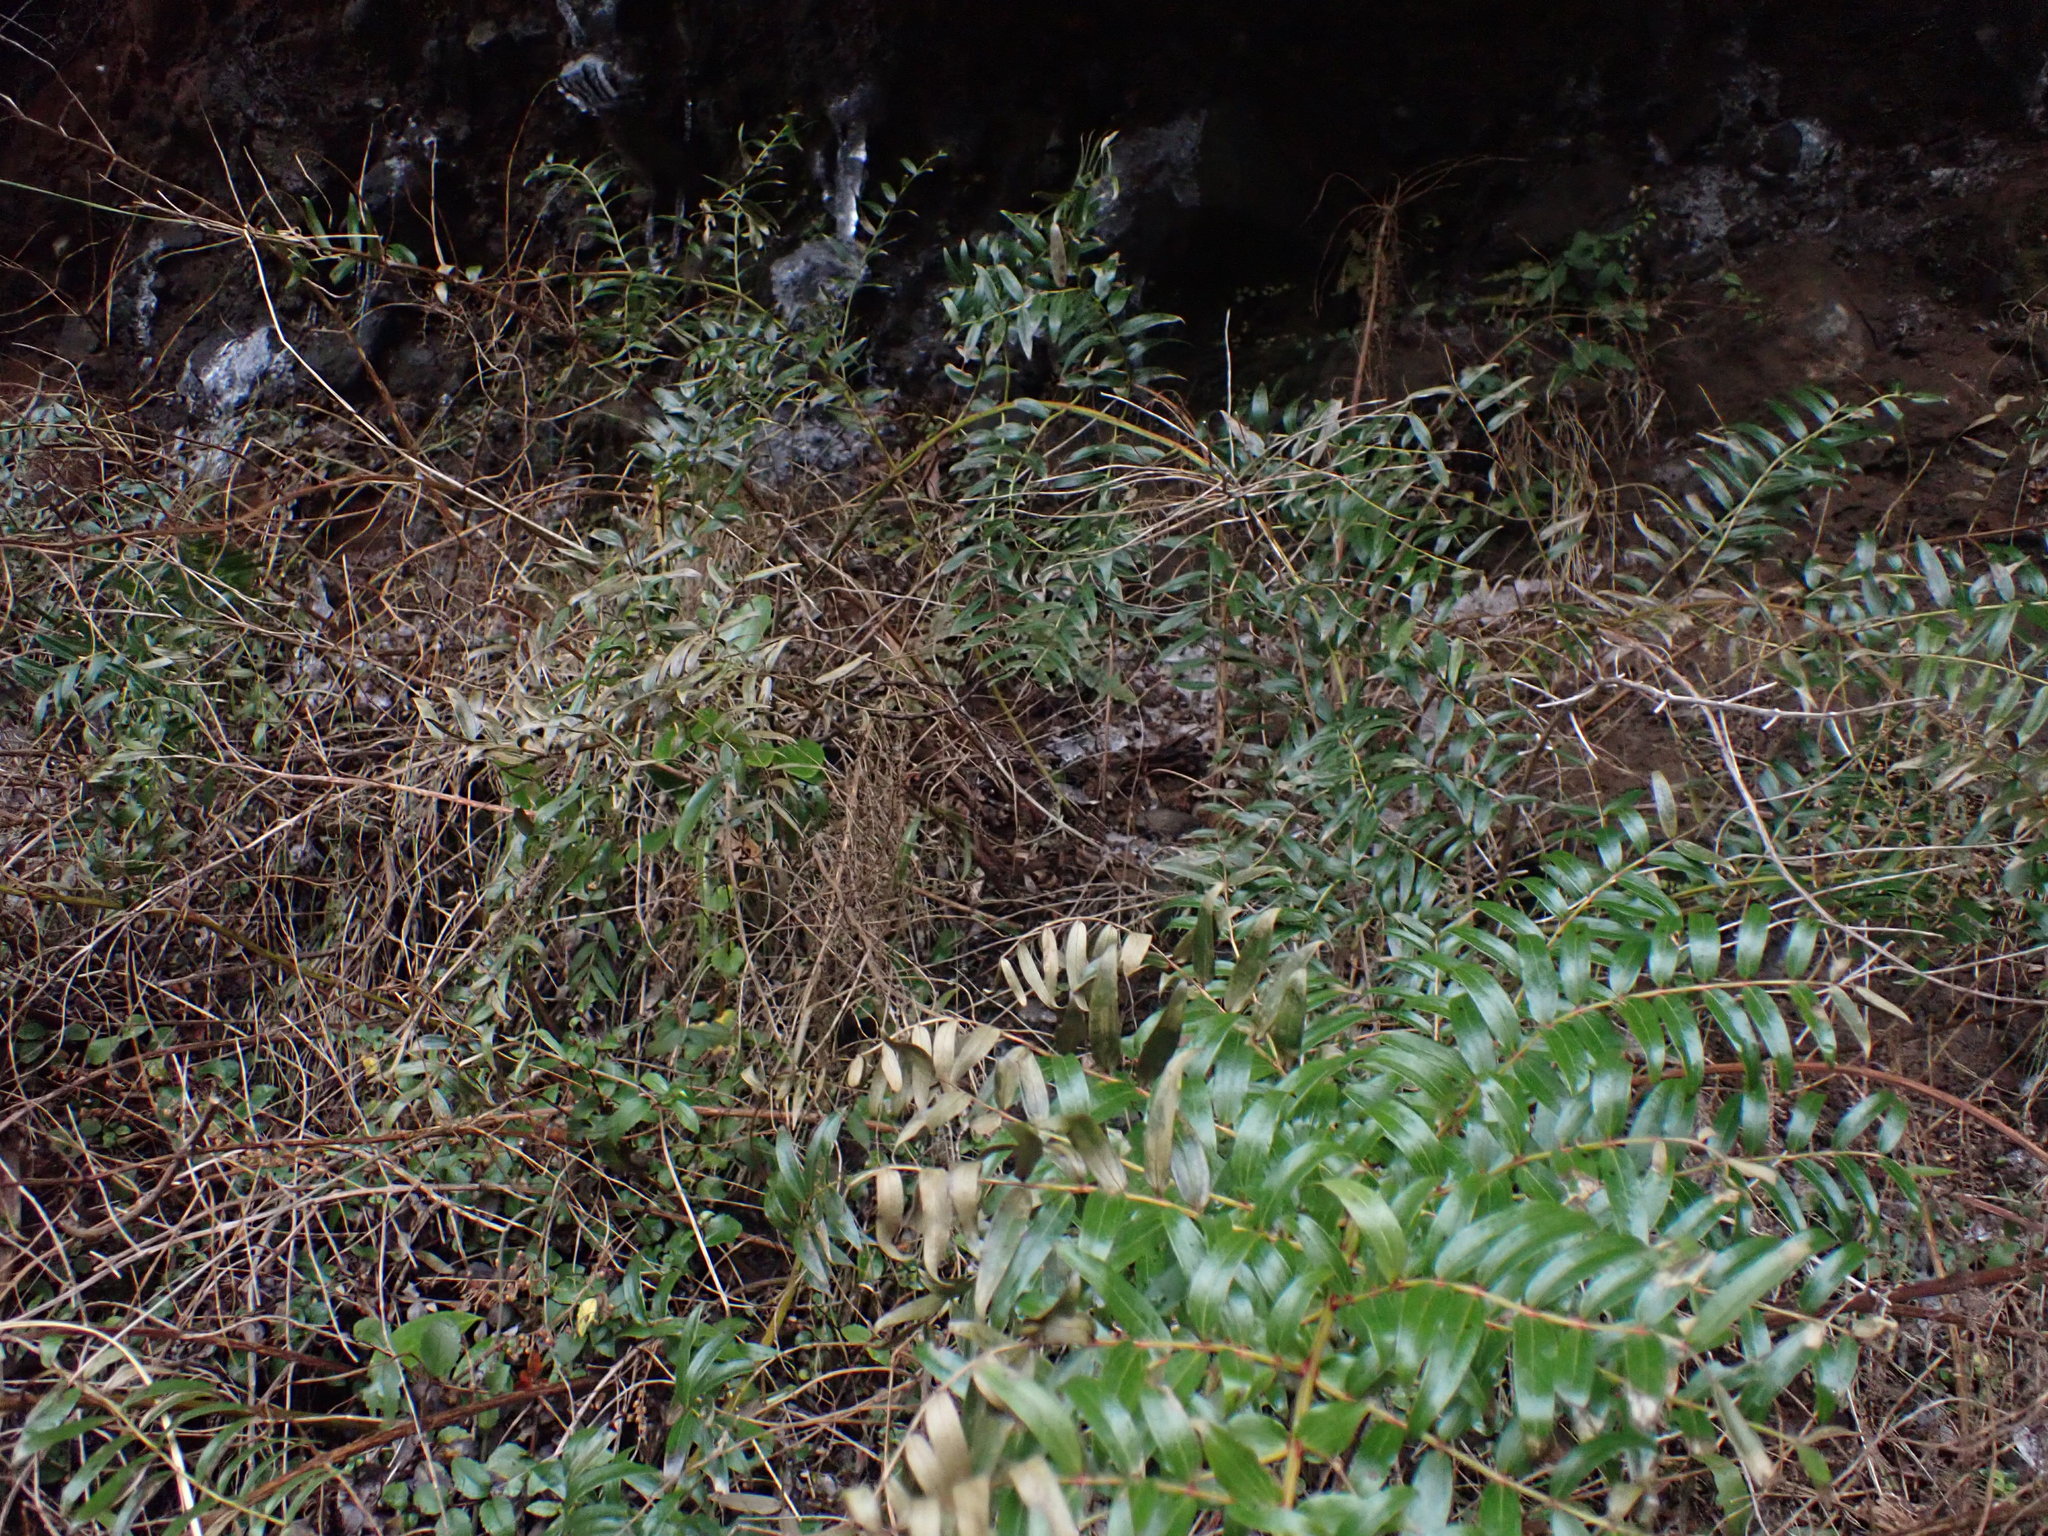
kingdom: Plantae
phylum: Tracheophyta
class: Magnoliopsida
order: Cucurbitales
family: Coriariaceae
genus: Coriaria
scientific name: Coriaria pteridoides
